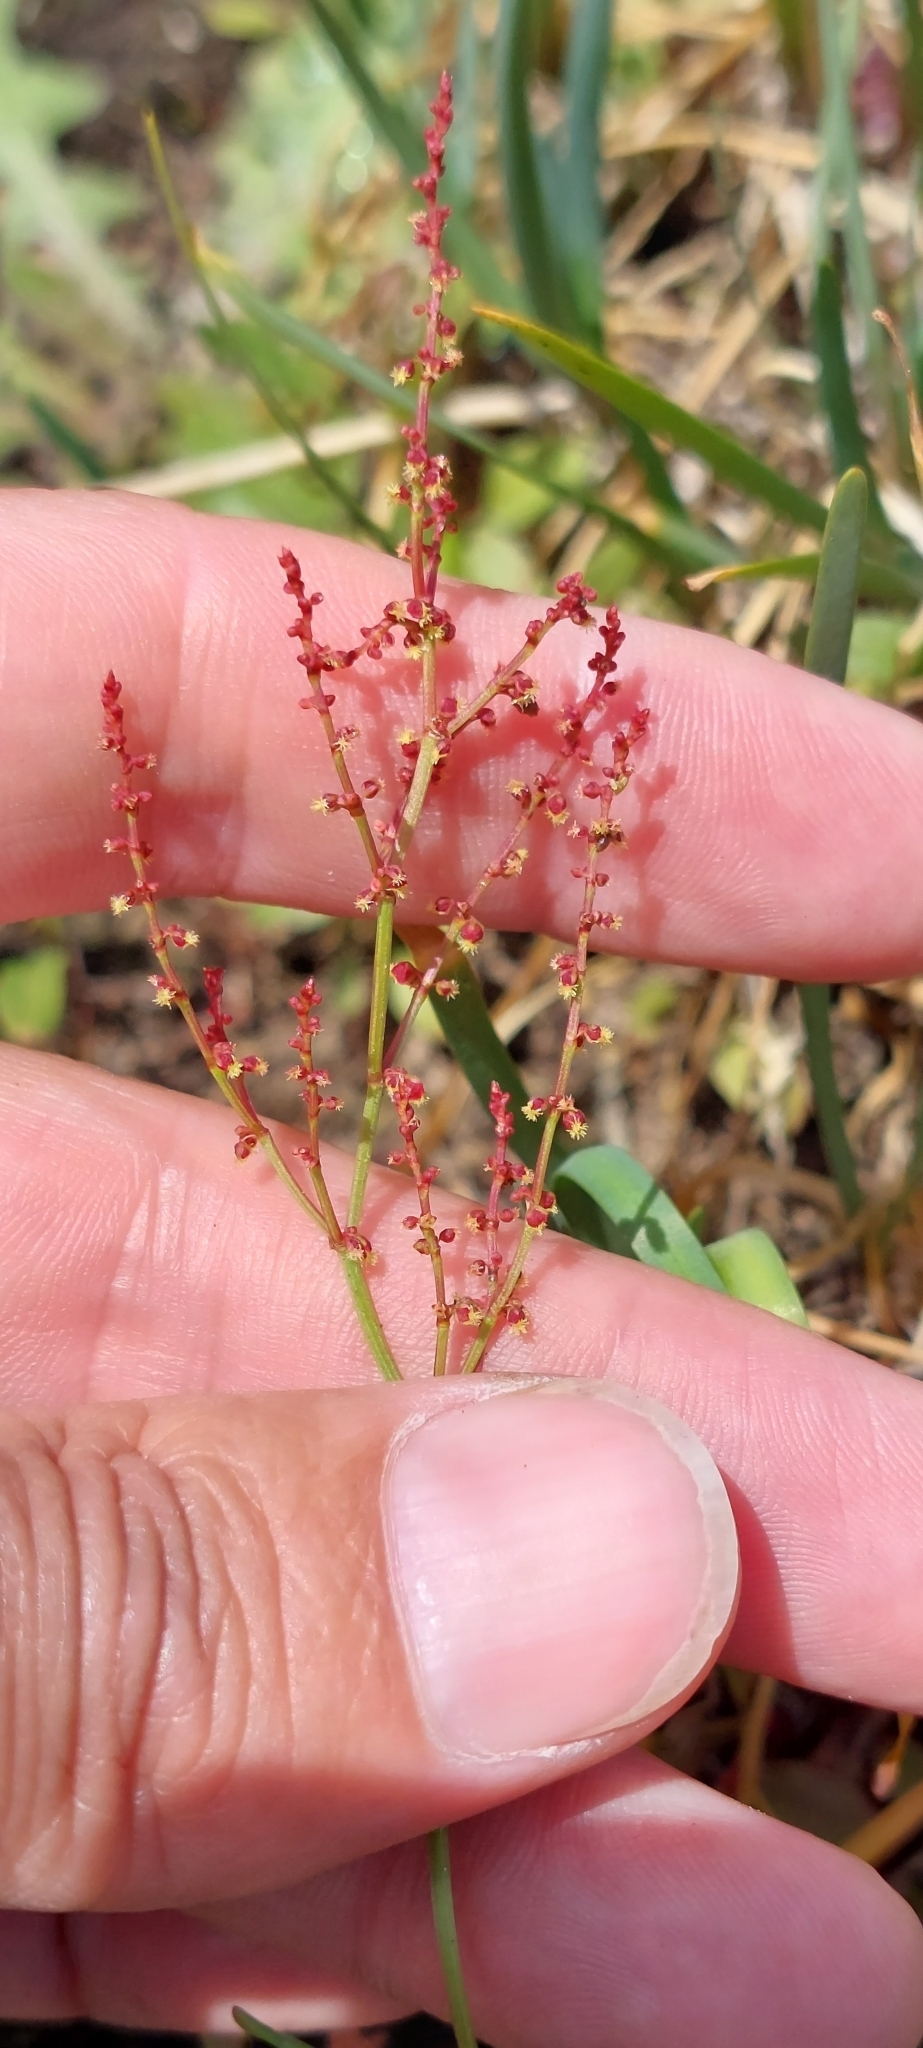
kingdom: Plantae
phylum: Tracheophyta
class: Magnoliopsida
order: Caryophyllales
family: Polygonaceae
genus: Rumex
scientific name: Rumex acetosella
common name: Common sheep sorrel
